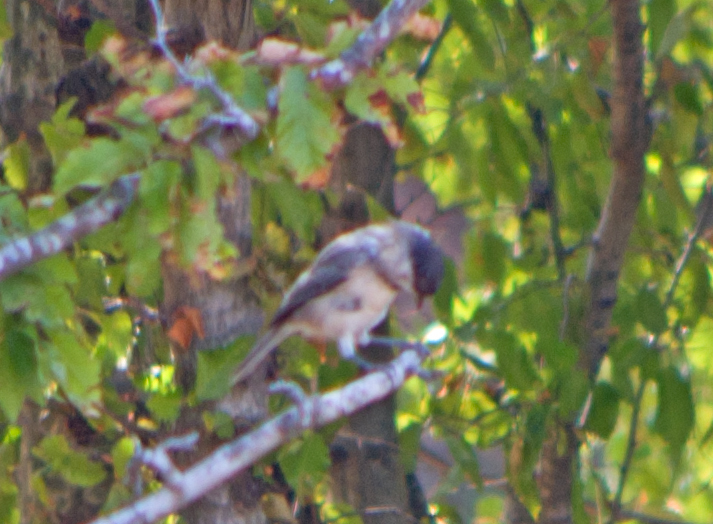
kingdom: Animalia
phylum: Chordata
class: Aves
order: Passeriformes
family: Paridae
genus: Poecile
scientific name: Poecile palustris
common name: Marsh tit
